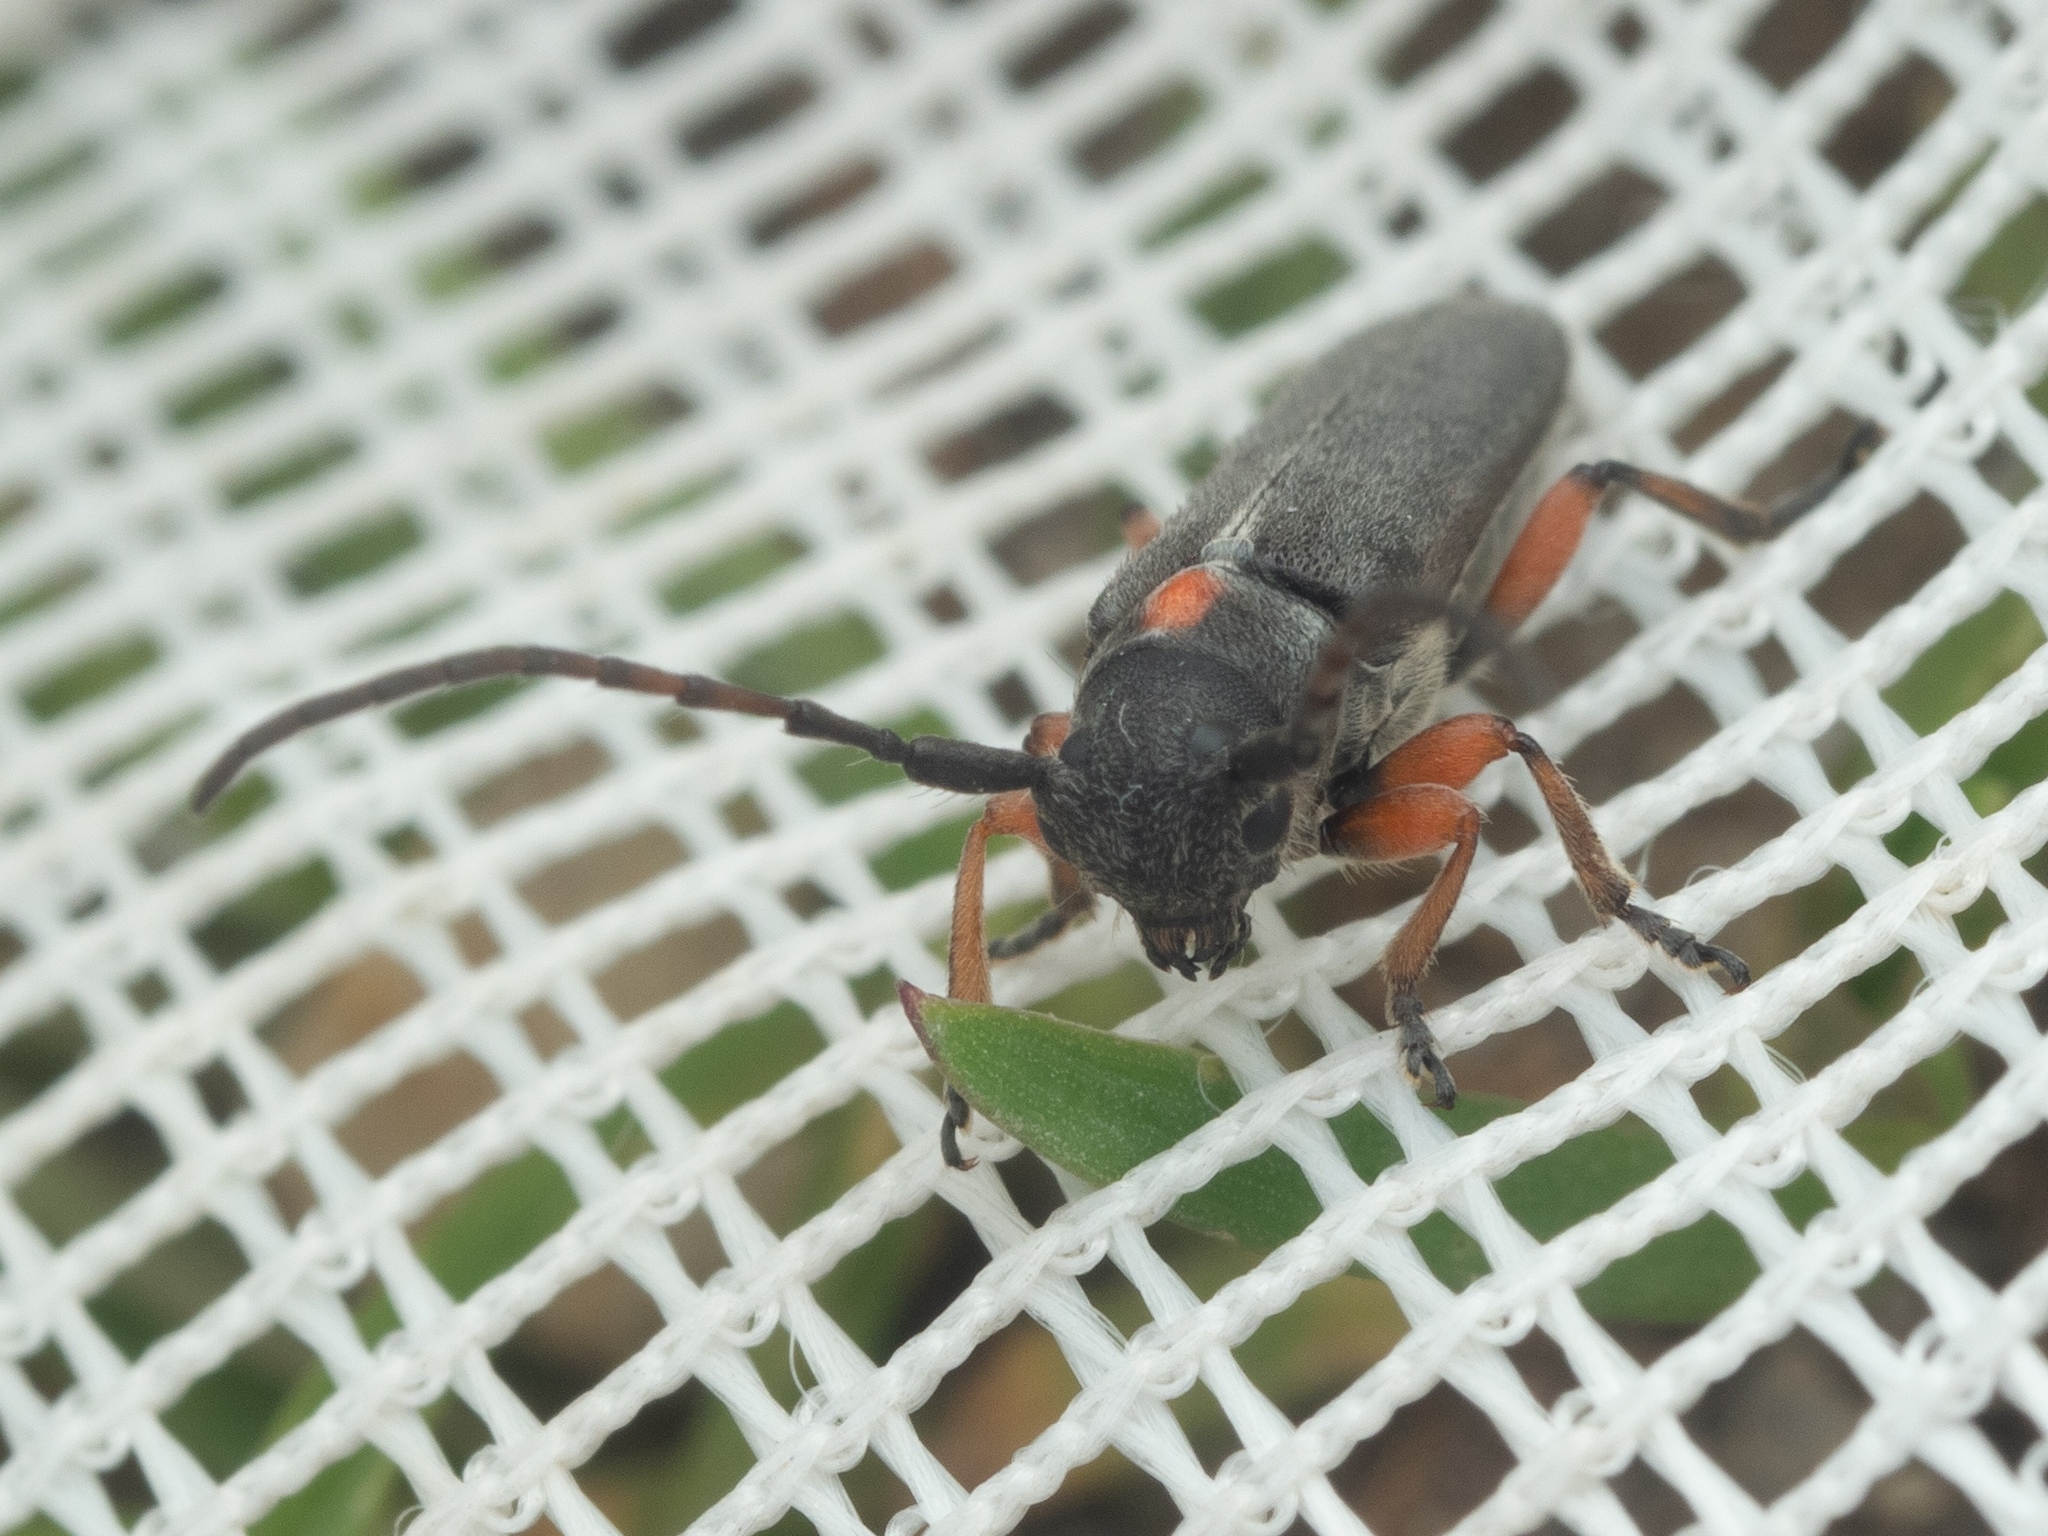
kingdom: Animalia
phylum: Arthropoda
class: Insecta
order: Coleoptera
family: Cerambycidae
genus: Phytoecia
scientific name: Phytoecia pustulata
